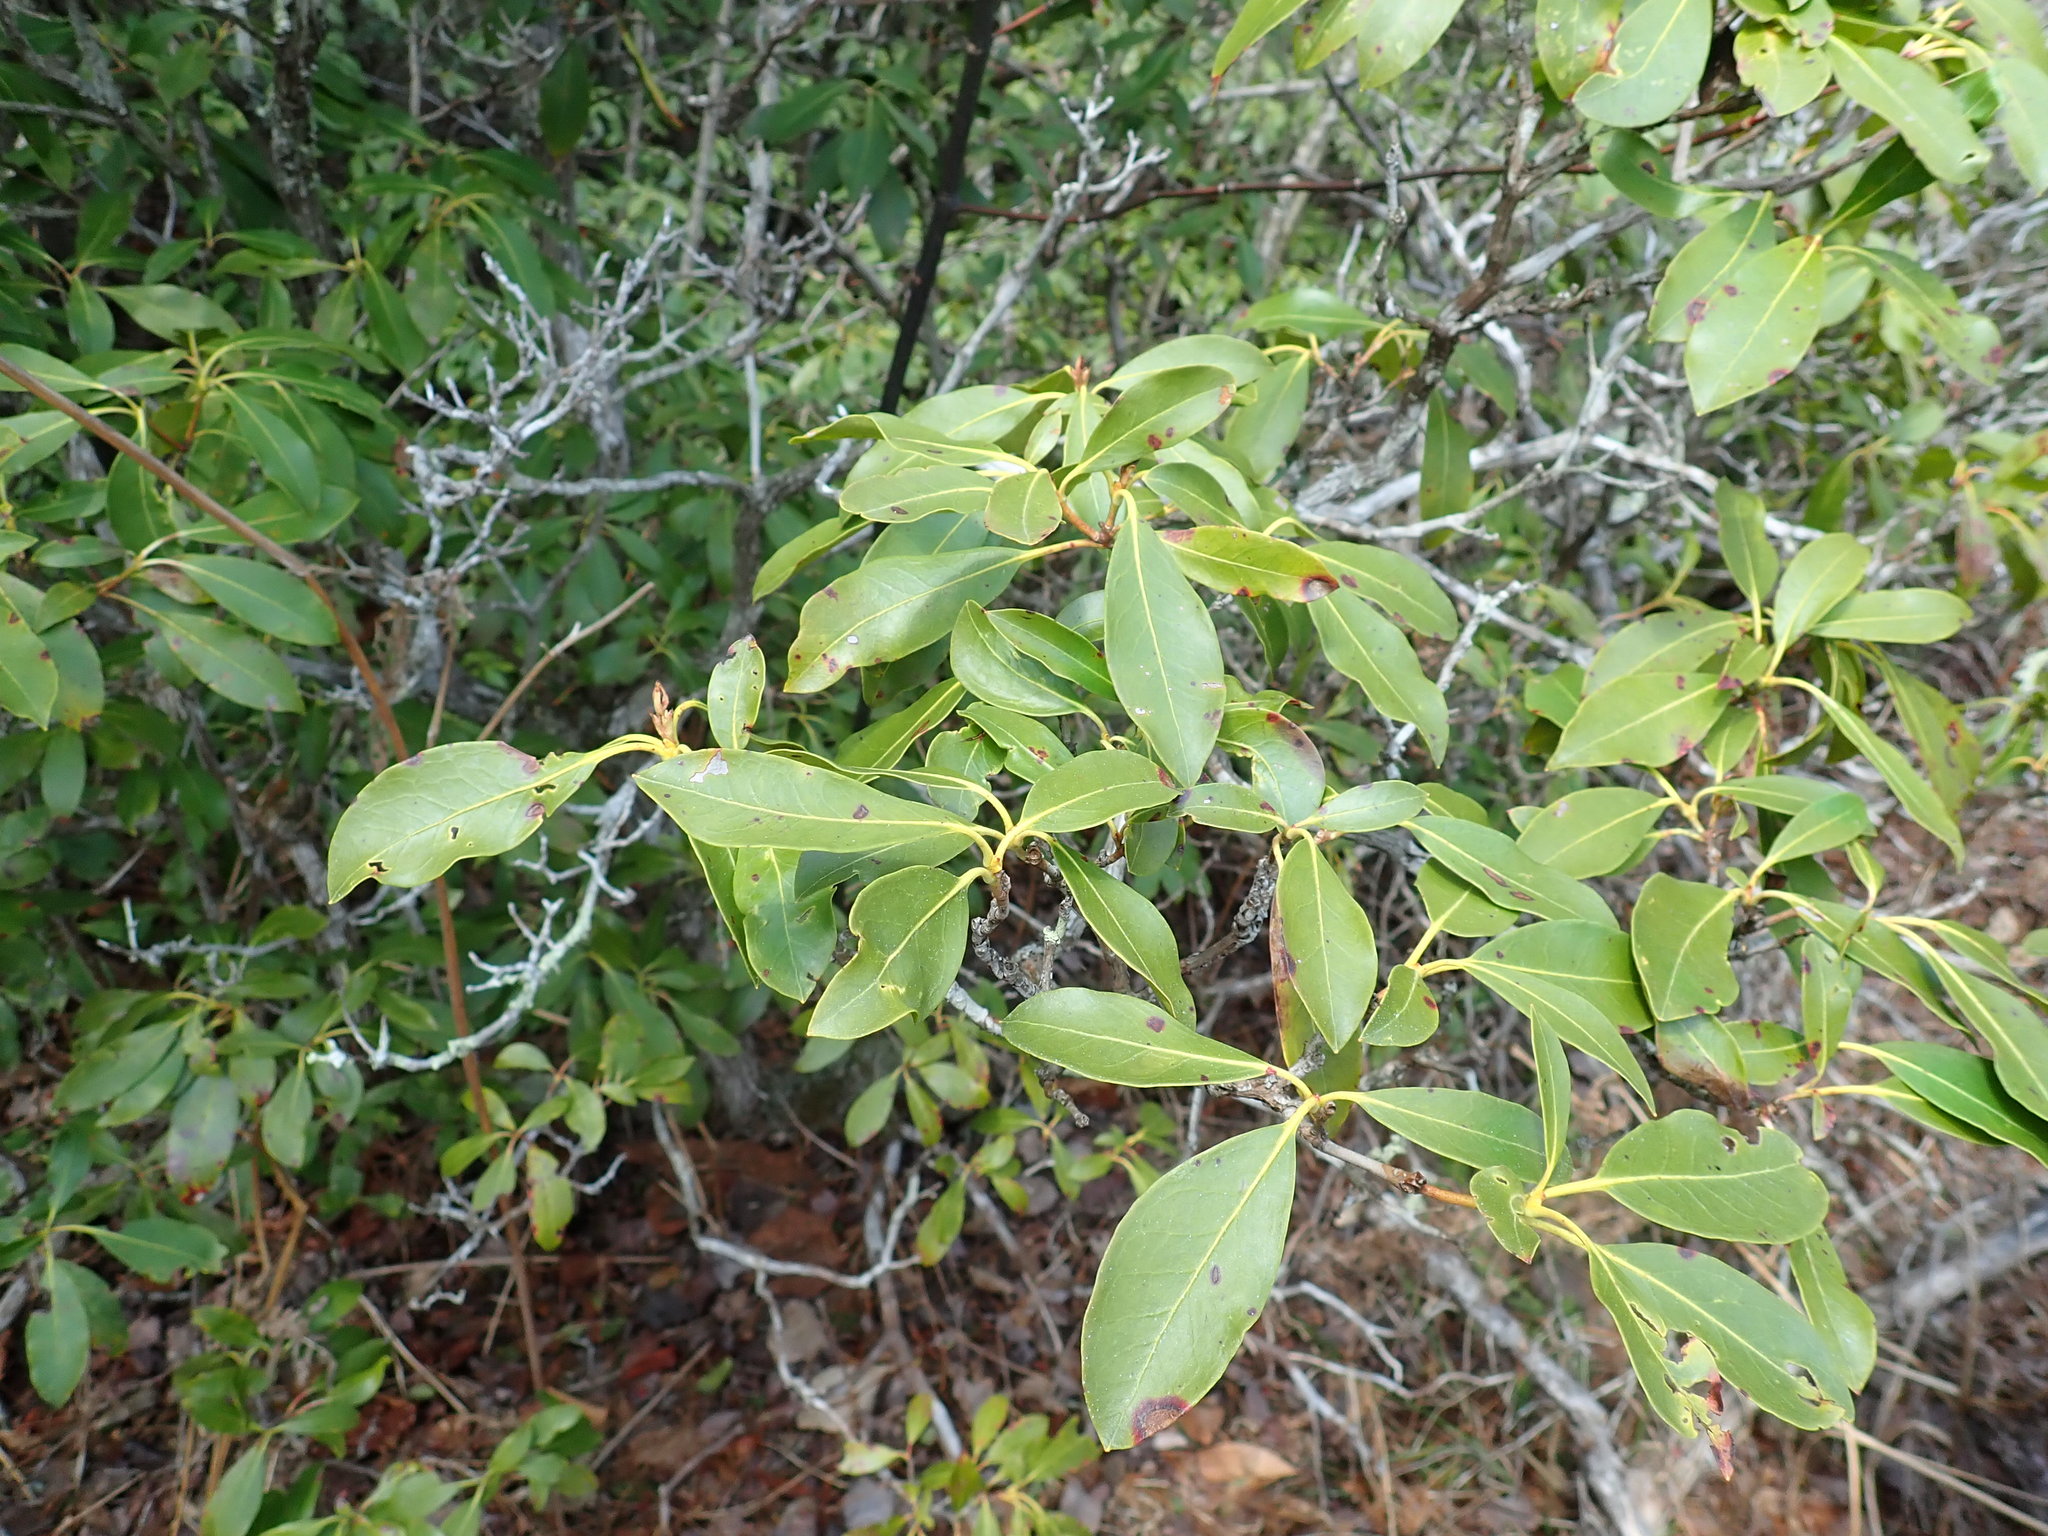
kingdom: Plantae
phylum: Tracheophyta
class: Magnoliopsida
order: Ericales
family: Ericaceae
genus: Kalmia
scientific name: Kalmia latifolia
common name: Mountain-laurel
